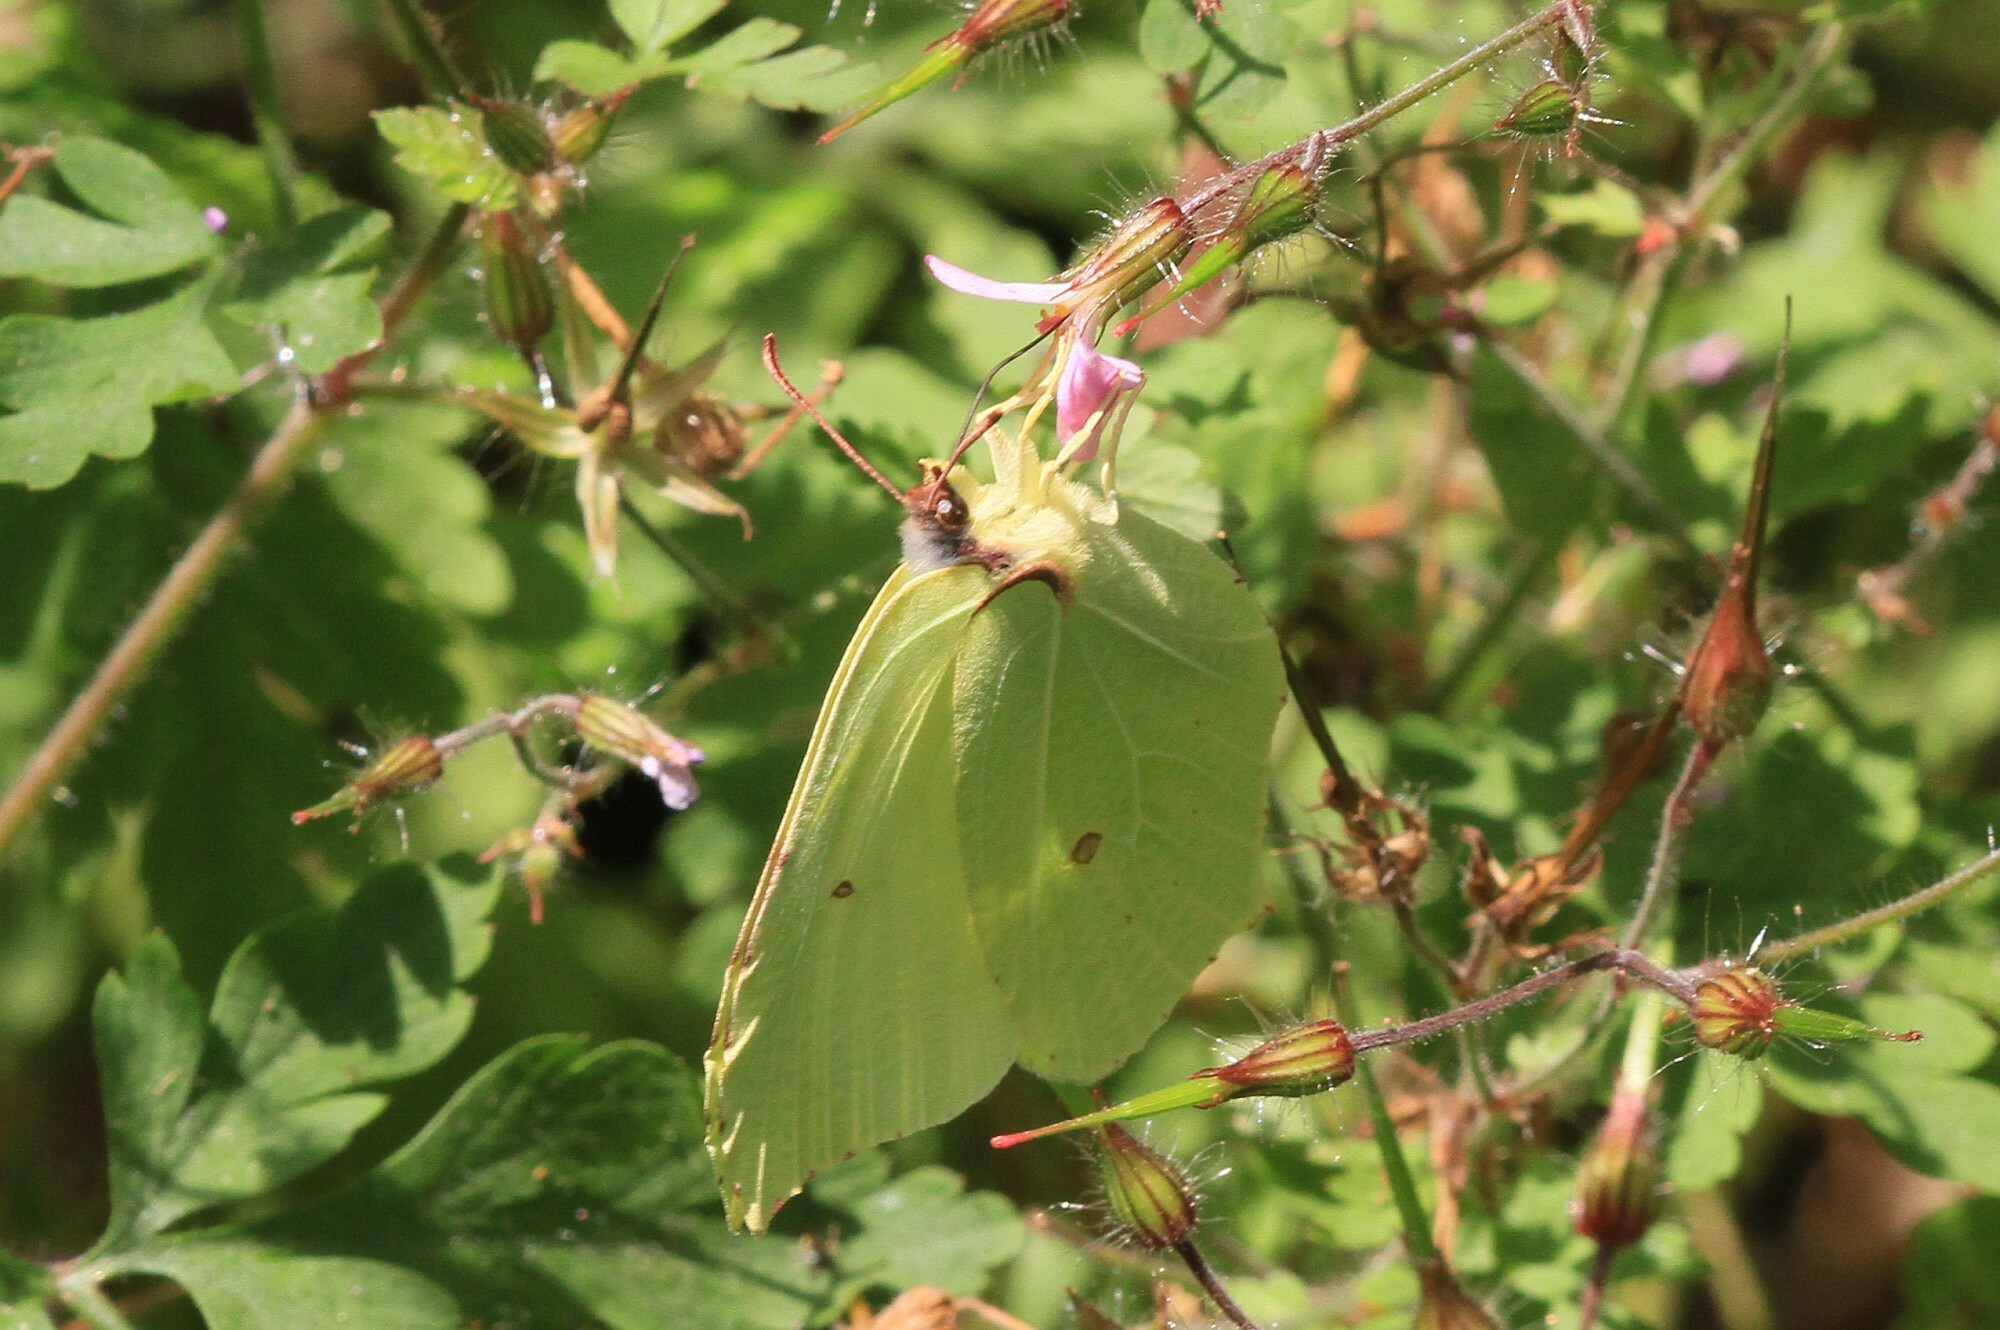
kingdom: Animalia
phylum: Arthropoda
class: Insecta
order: Lepidoptera
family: Pieridae
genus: Gonepteryx
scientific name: Gonepteryx rhamni
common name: Brimstone
